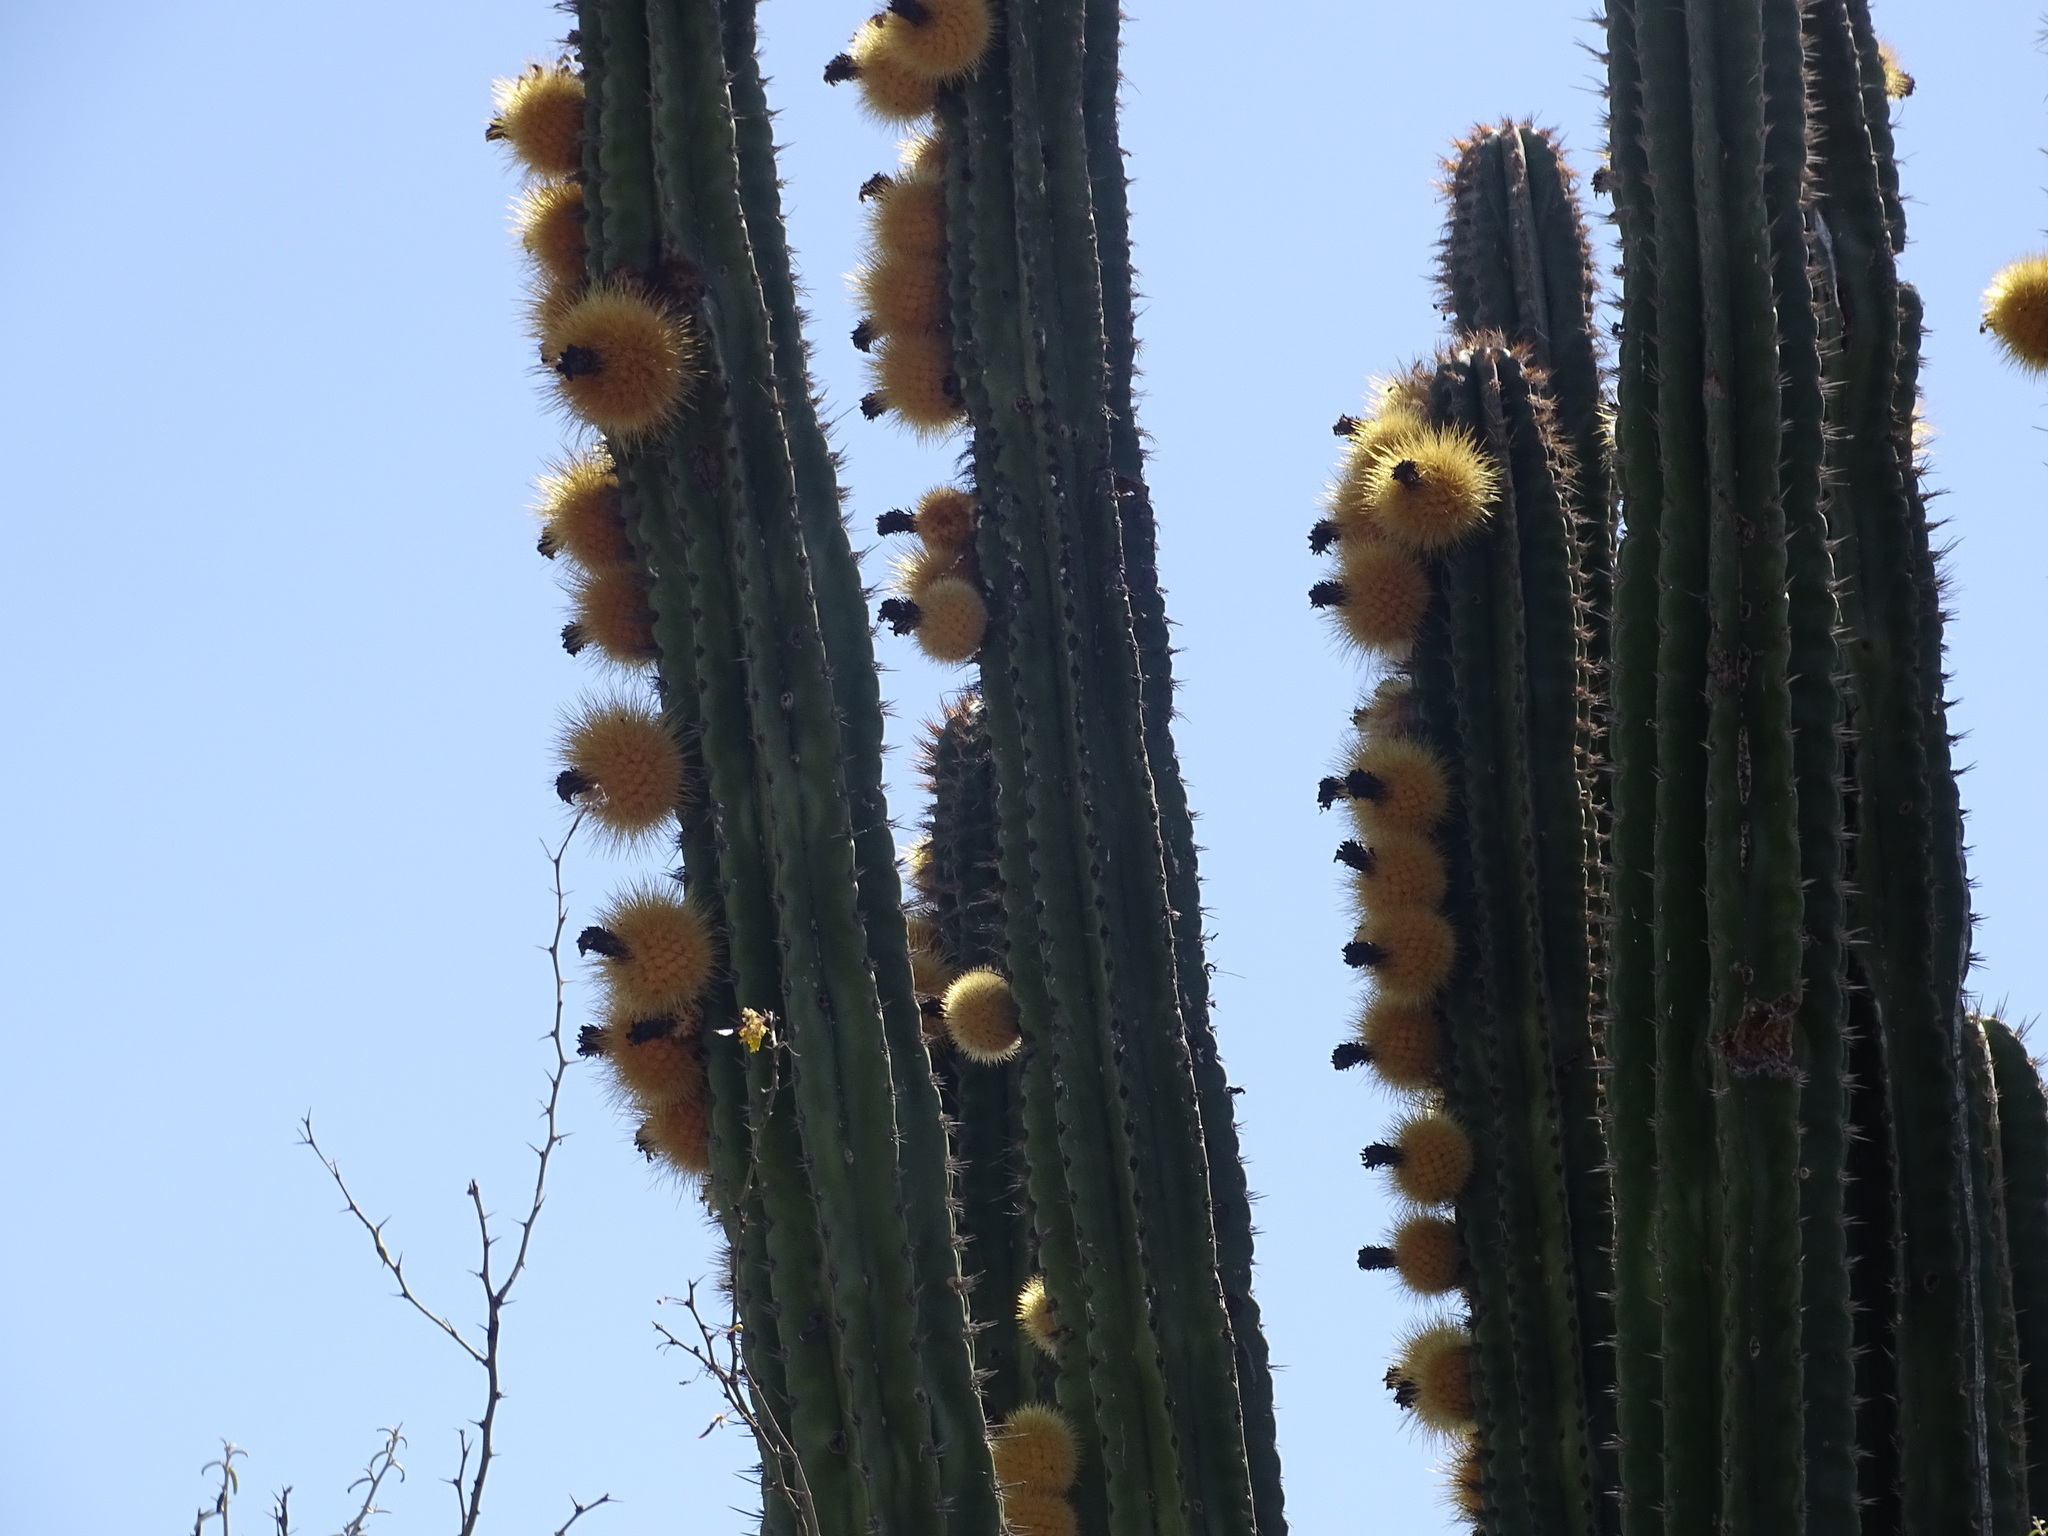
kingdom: Plantae
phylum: Tracheophyta
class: Magnoliopsida
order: Caryophyllales
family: Cactaceae
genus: Pachycereus
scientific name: Pachycereus pecten-aboriginum
